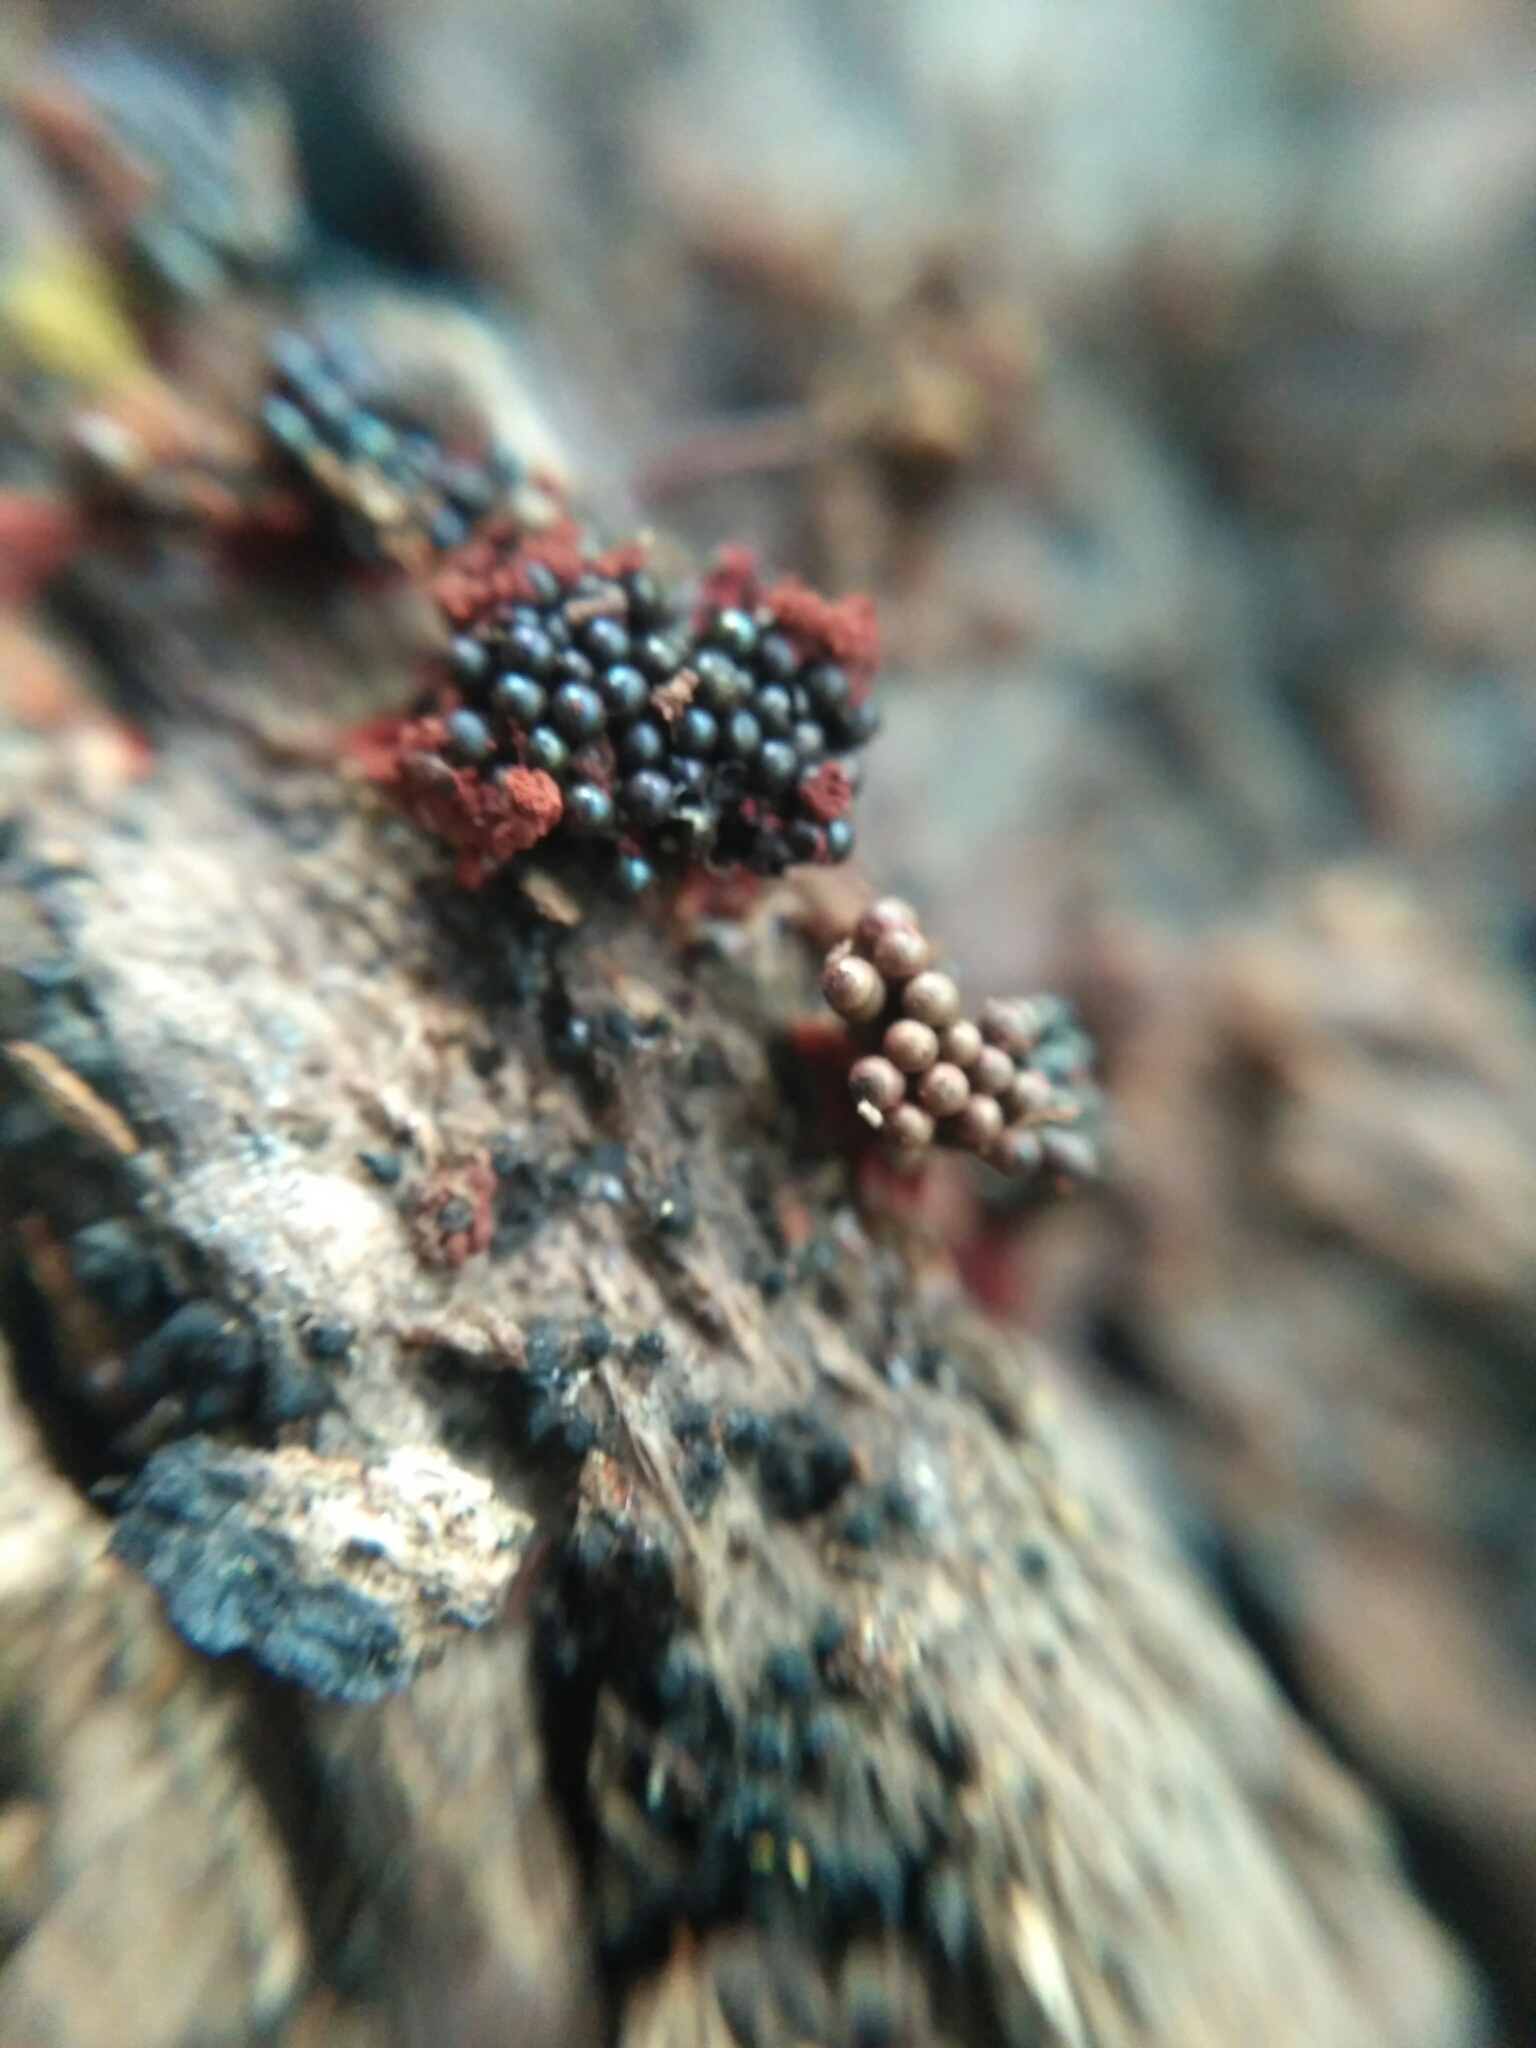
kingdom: Protozoa
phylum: Mycetozoa
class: Myxomycetes
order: Trichiales
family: Trichiaceae
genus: Metatrichia
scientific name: Metatrichia vesparia
